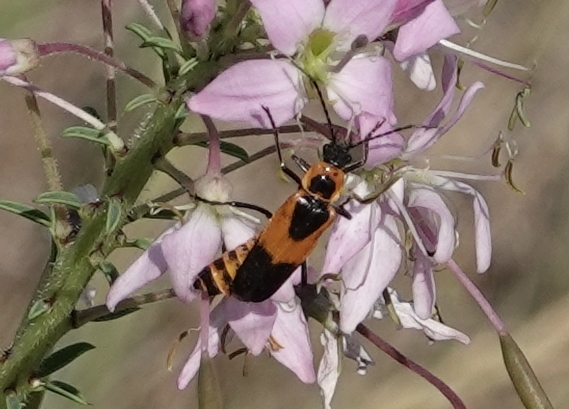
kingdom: Animalia
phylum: Arthropoda
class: Insecta
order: Coleoptera
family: Cantharidae
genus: Chauliognathus
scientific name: Chauliognathus basalis
